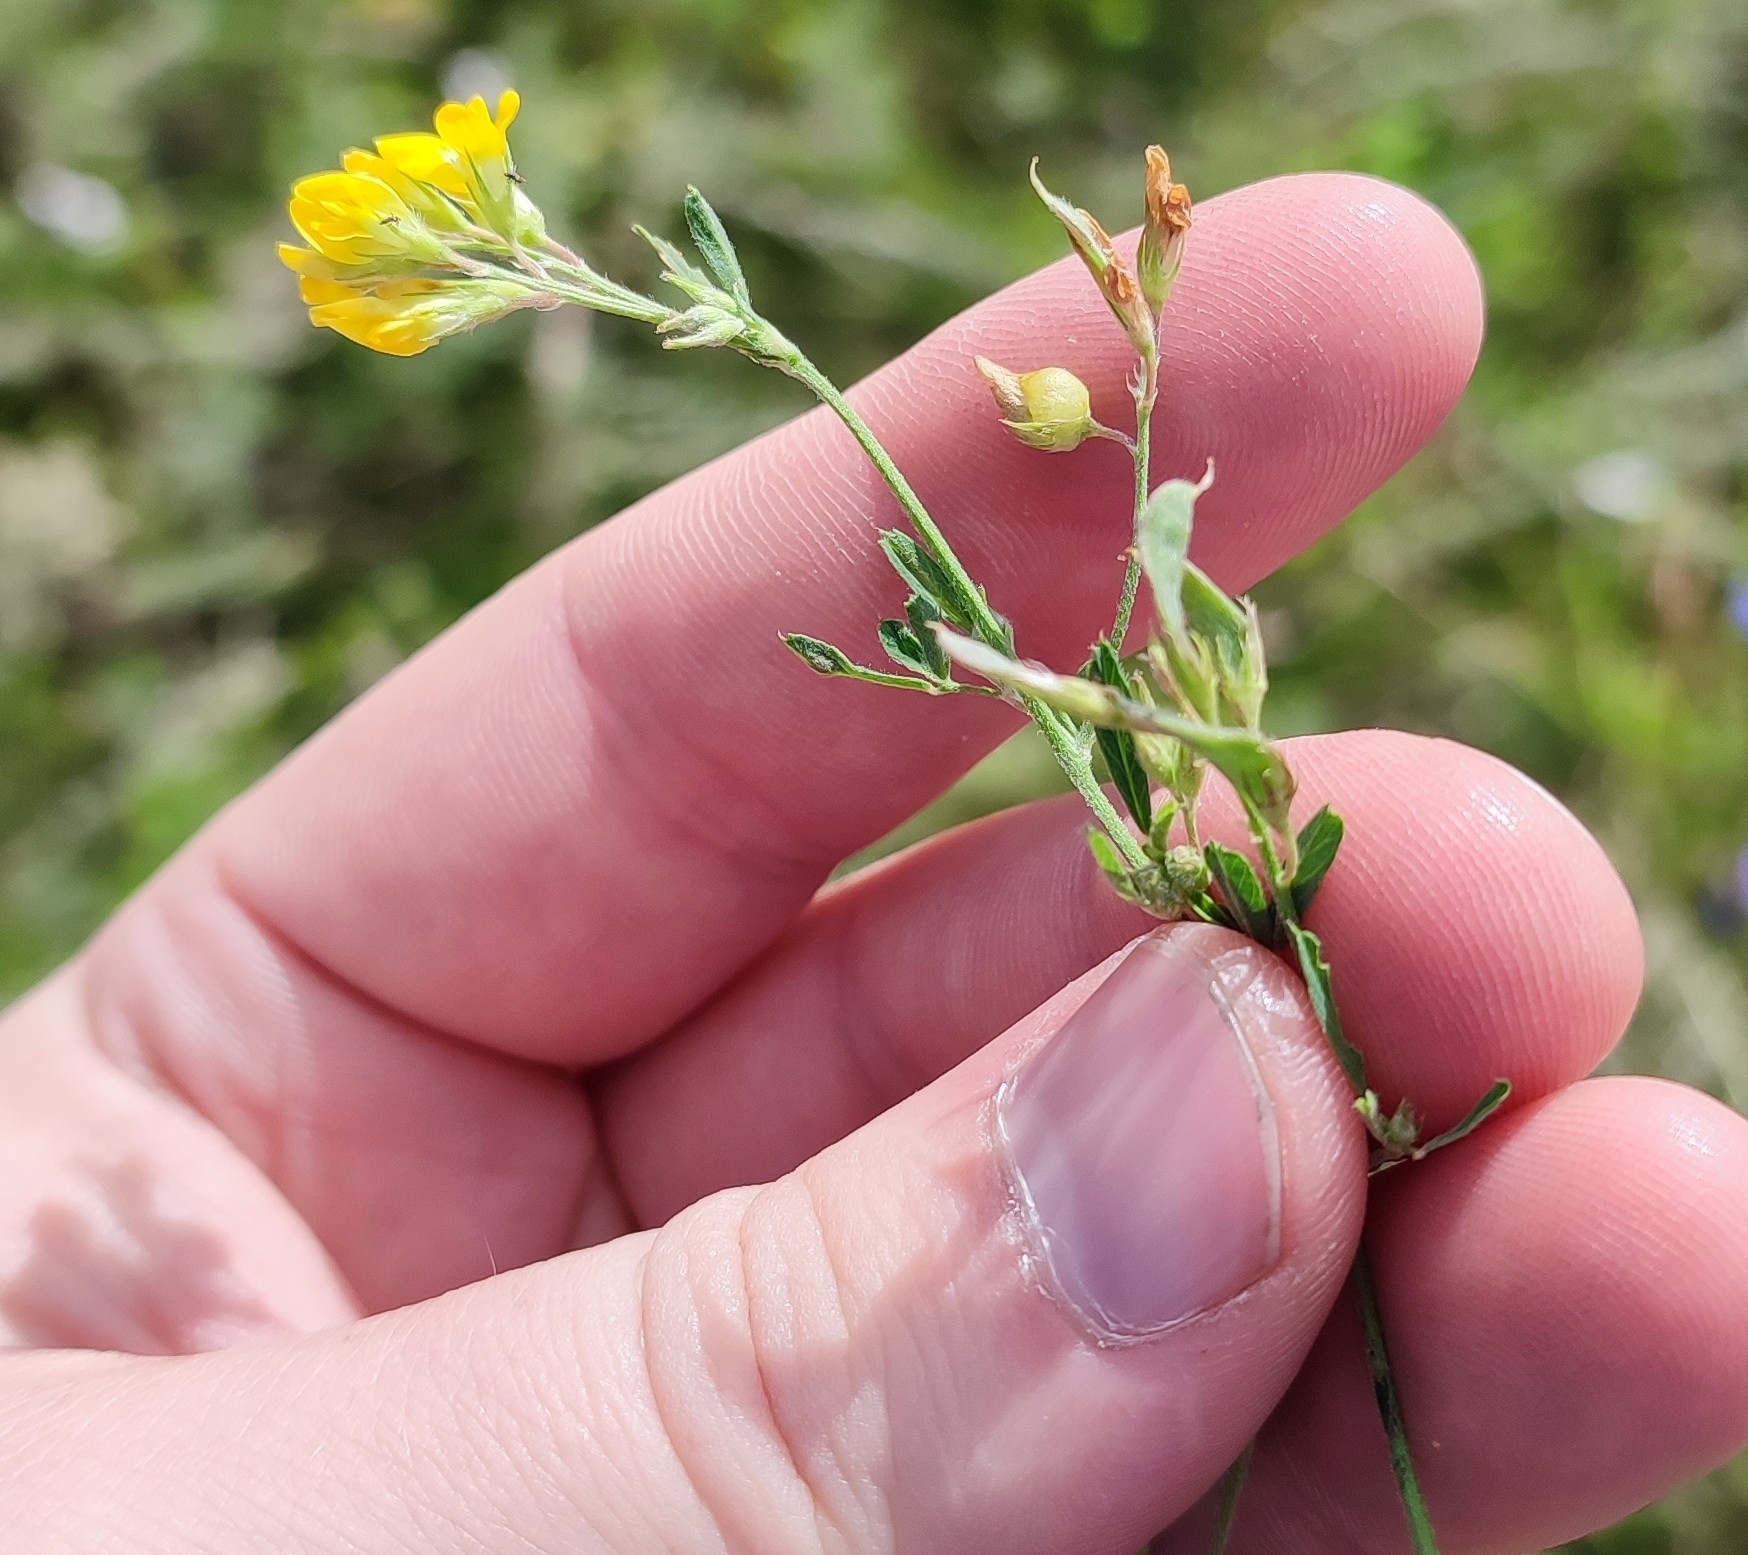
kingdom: Plantae
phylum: Tracheophyta
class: Magnoliopsida
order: Fabales
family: Fabaceae
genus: Medicago
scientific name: Medicago falcata
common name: Sickle medick
